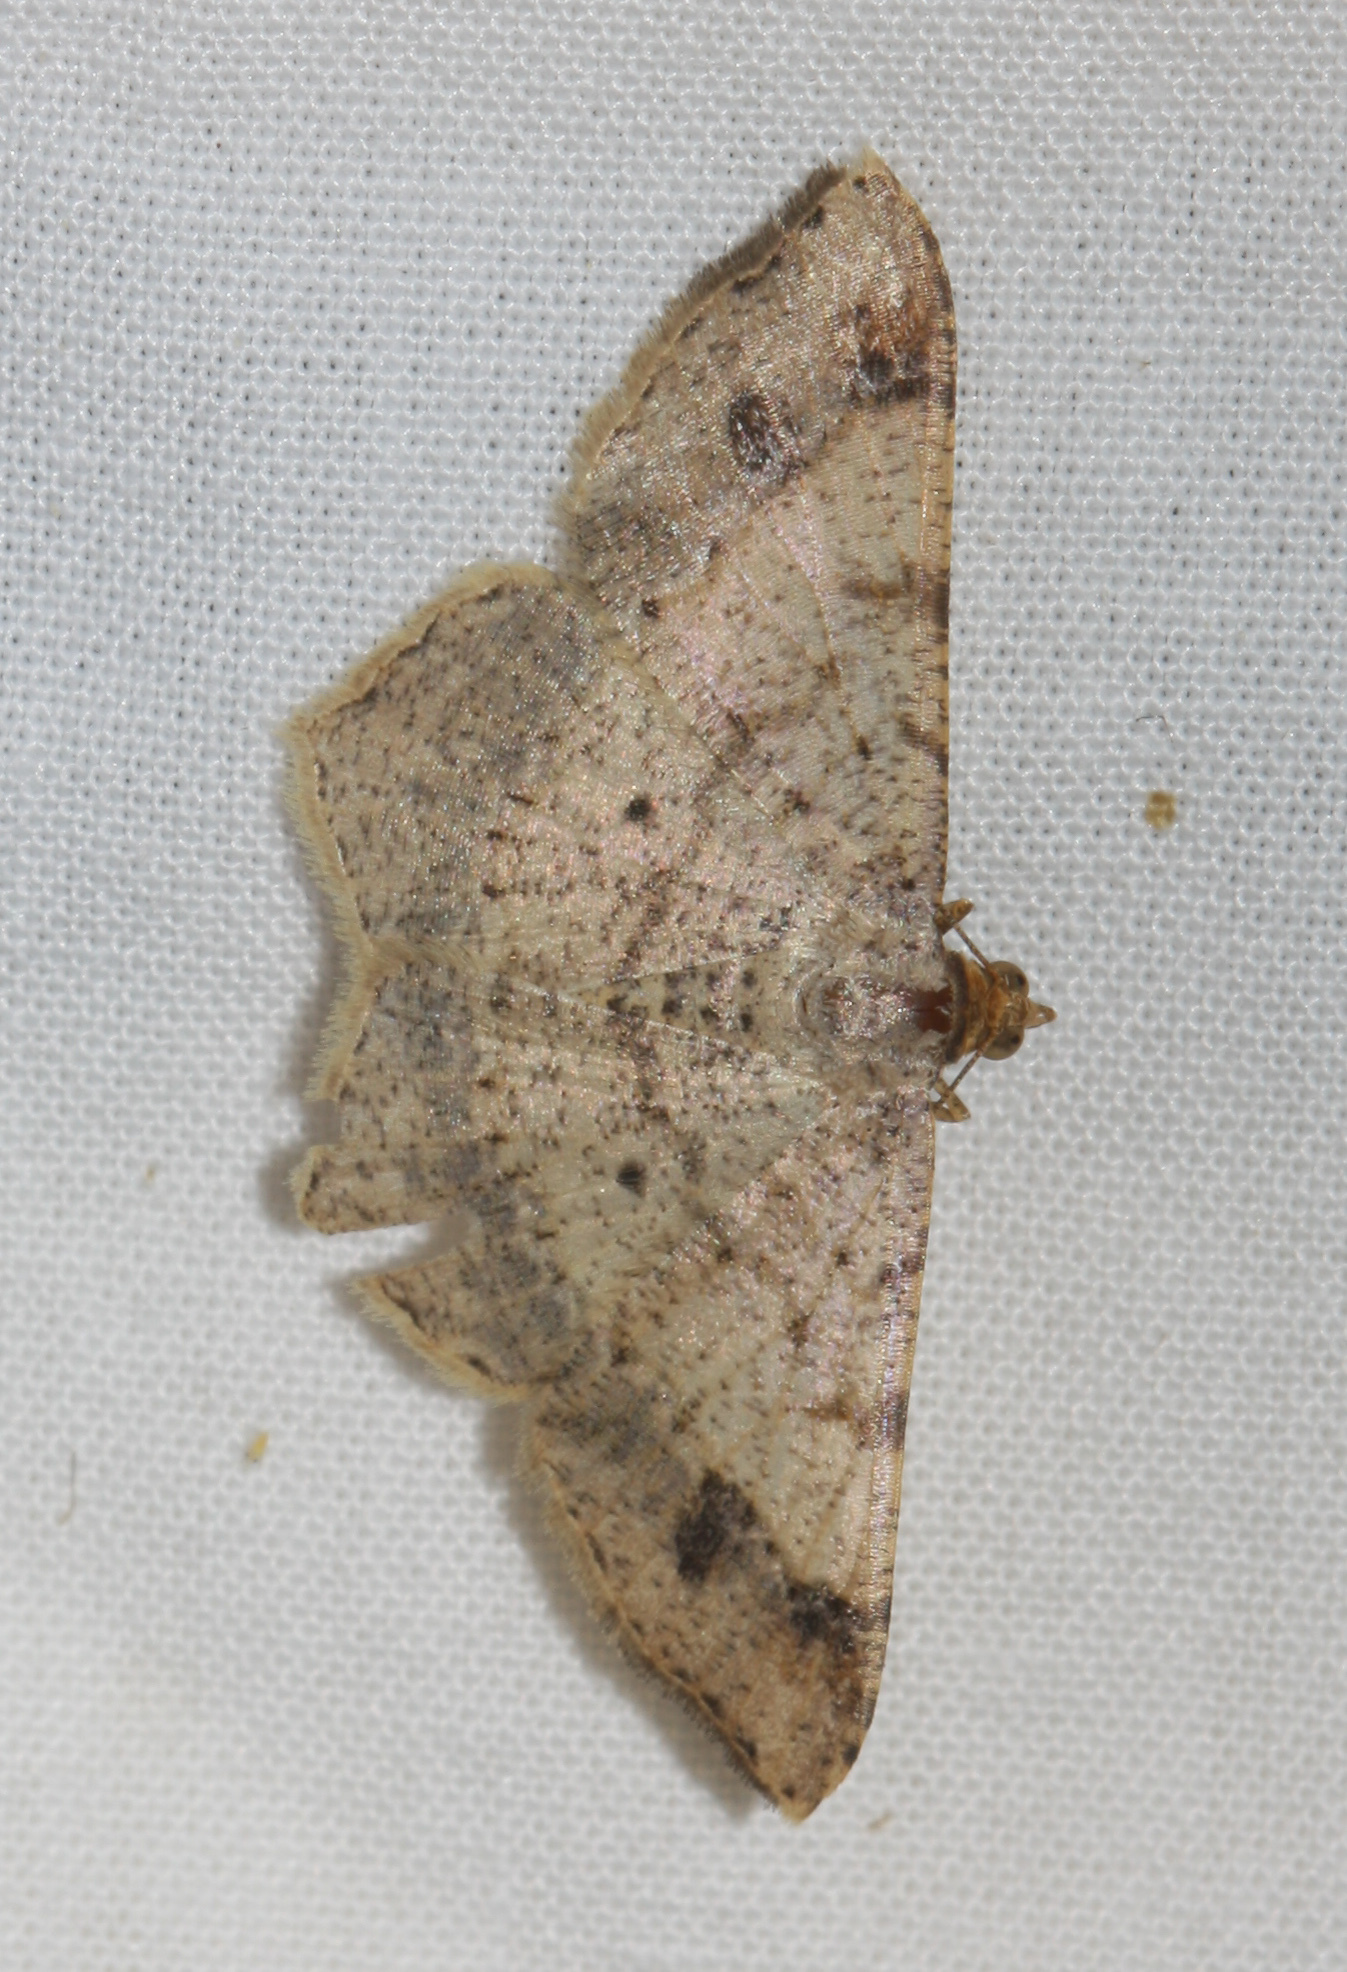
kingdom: Animalia
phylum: Arthropoda
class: Insecta
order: Lepidoptera
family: Geometridae
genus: Macaria
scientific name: Macaria abydata
